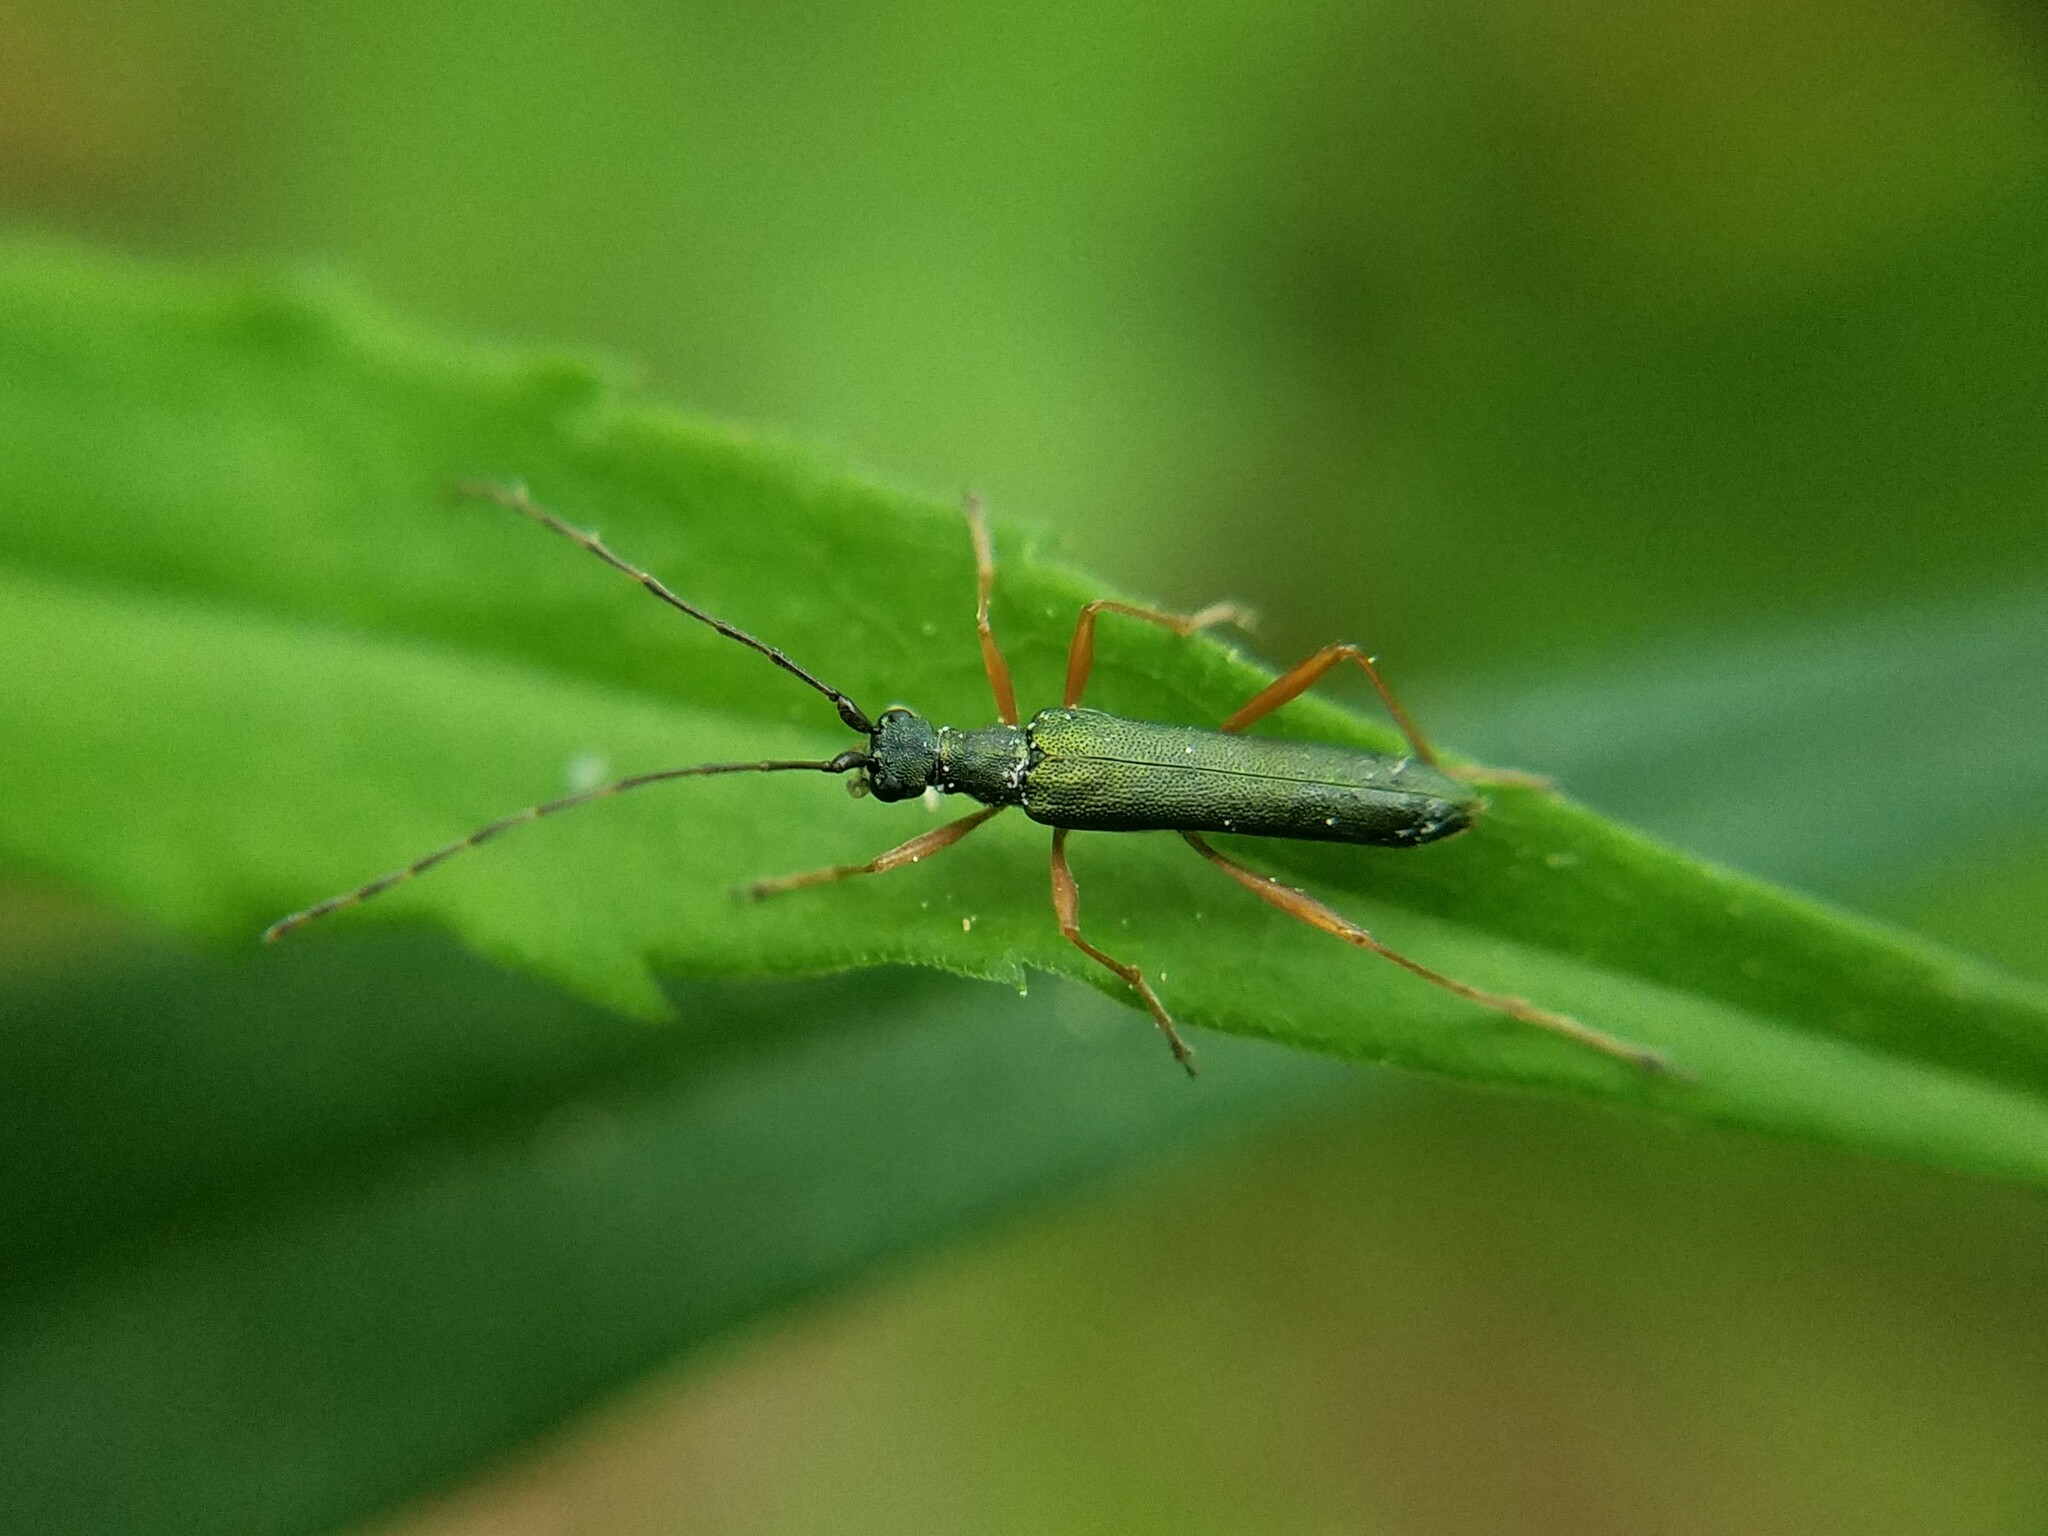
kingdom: Animalia
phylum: Arthropoda
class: Insecta
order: Coleoptera
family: Cerambycidae
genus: Encyclops
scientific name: Encyclops caerulea
